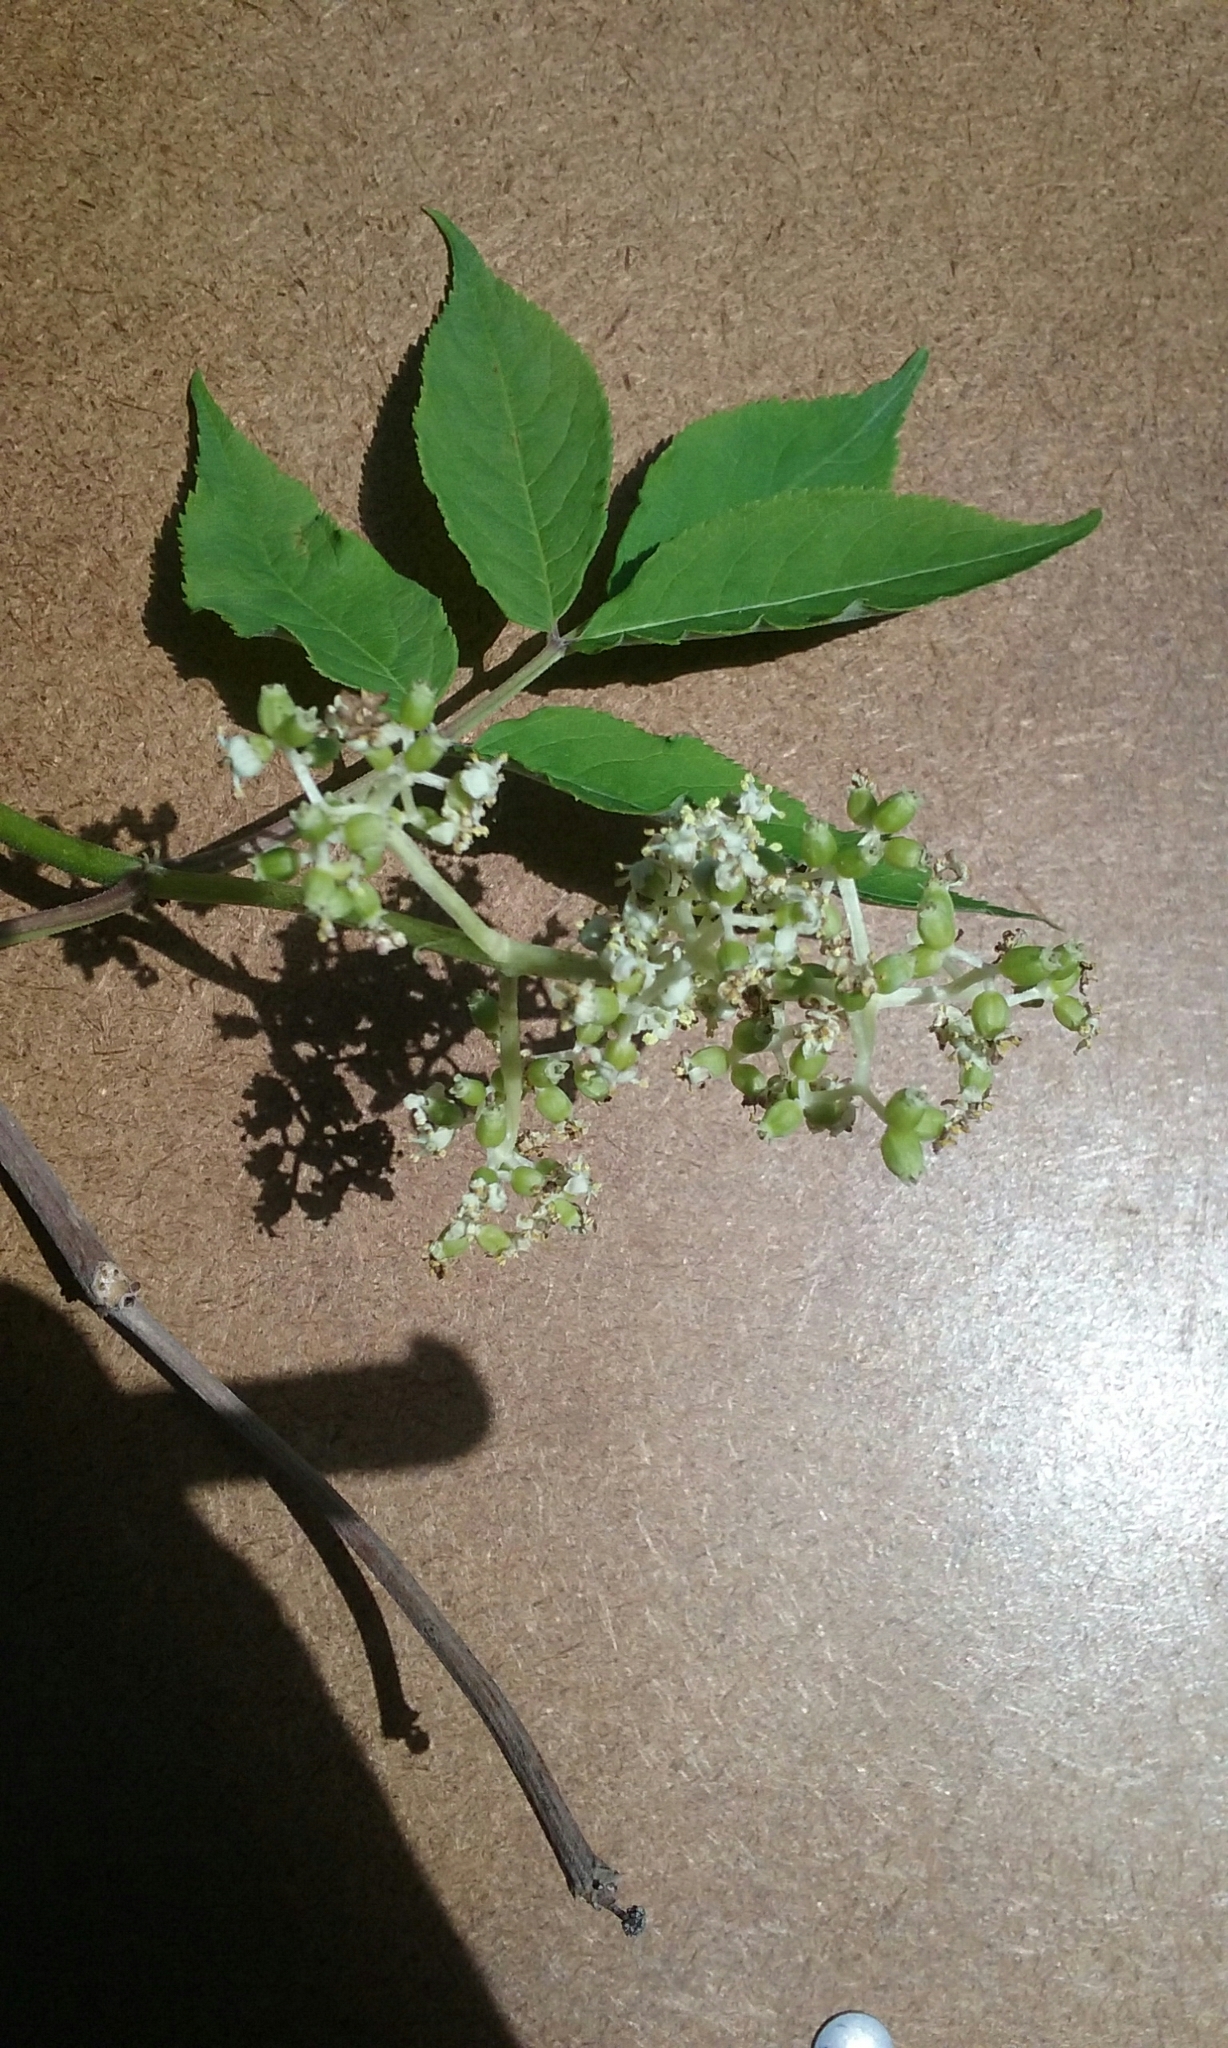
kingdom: Plantae
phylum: Tracheophyta
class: Magnoliopsida
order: Dipsacales
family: Viburnaceae
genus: Sambucus
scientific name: Sambucus racemosa
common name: Red-berried elder
